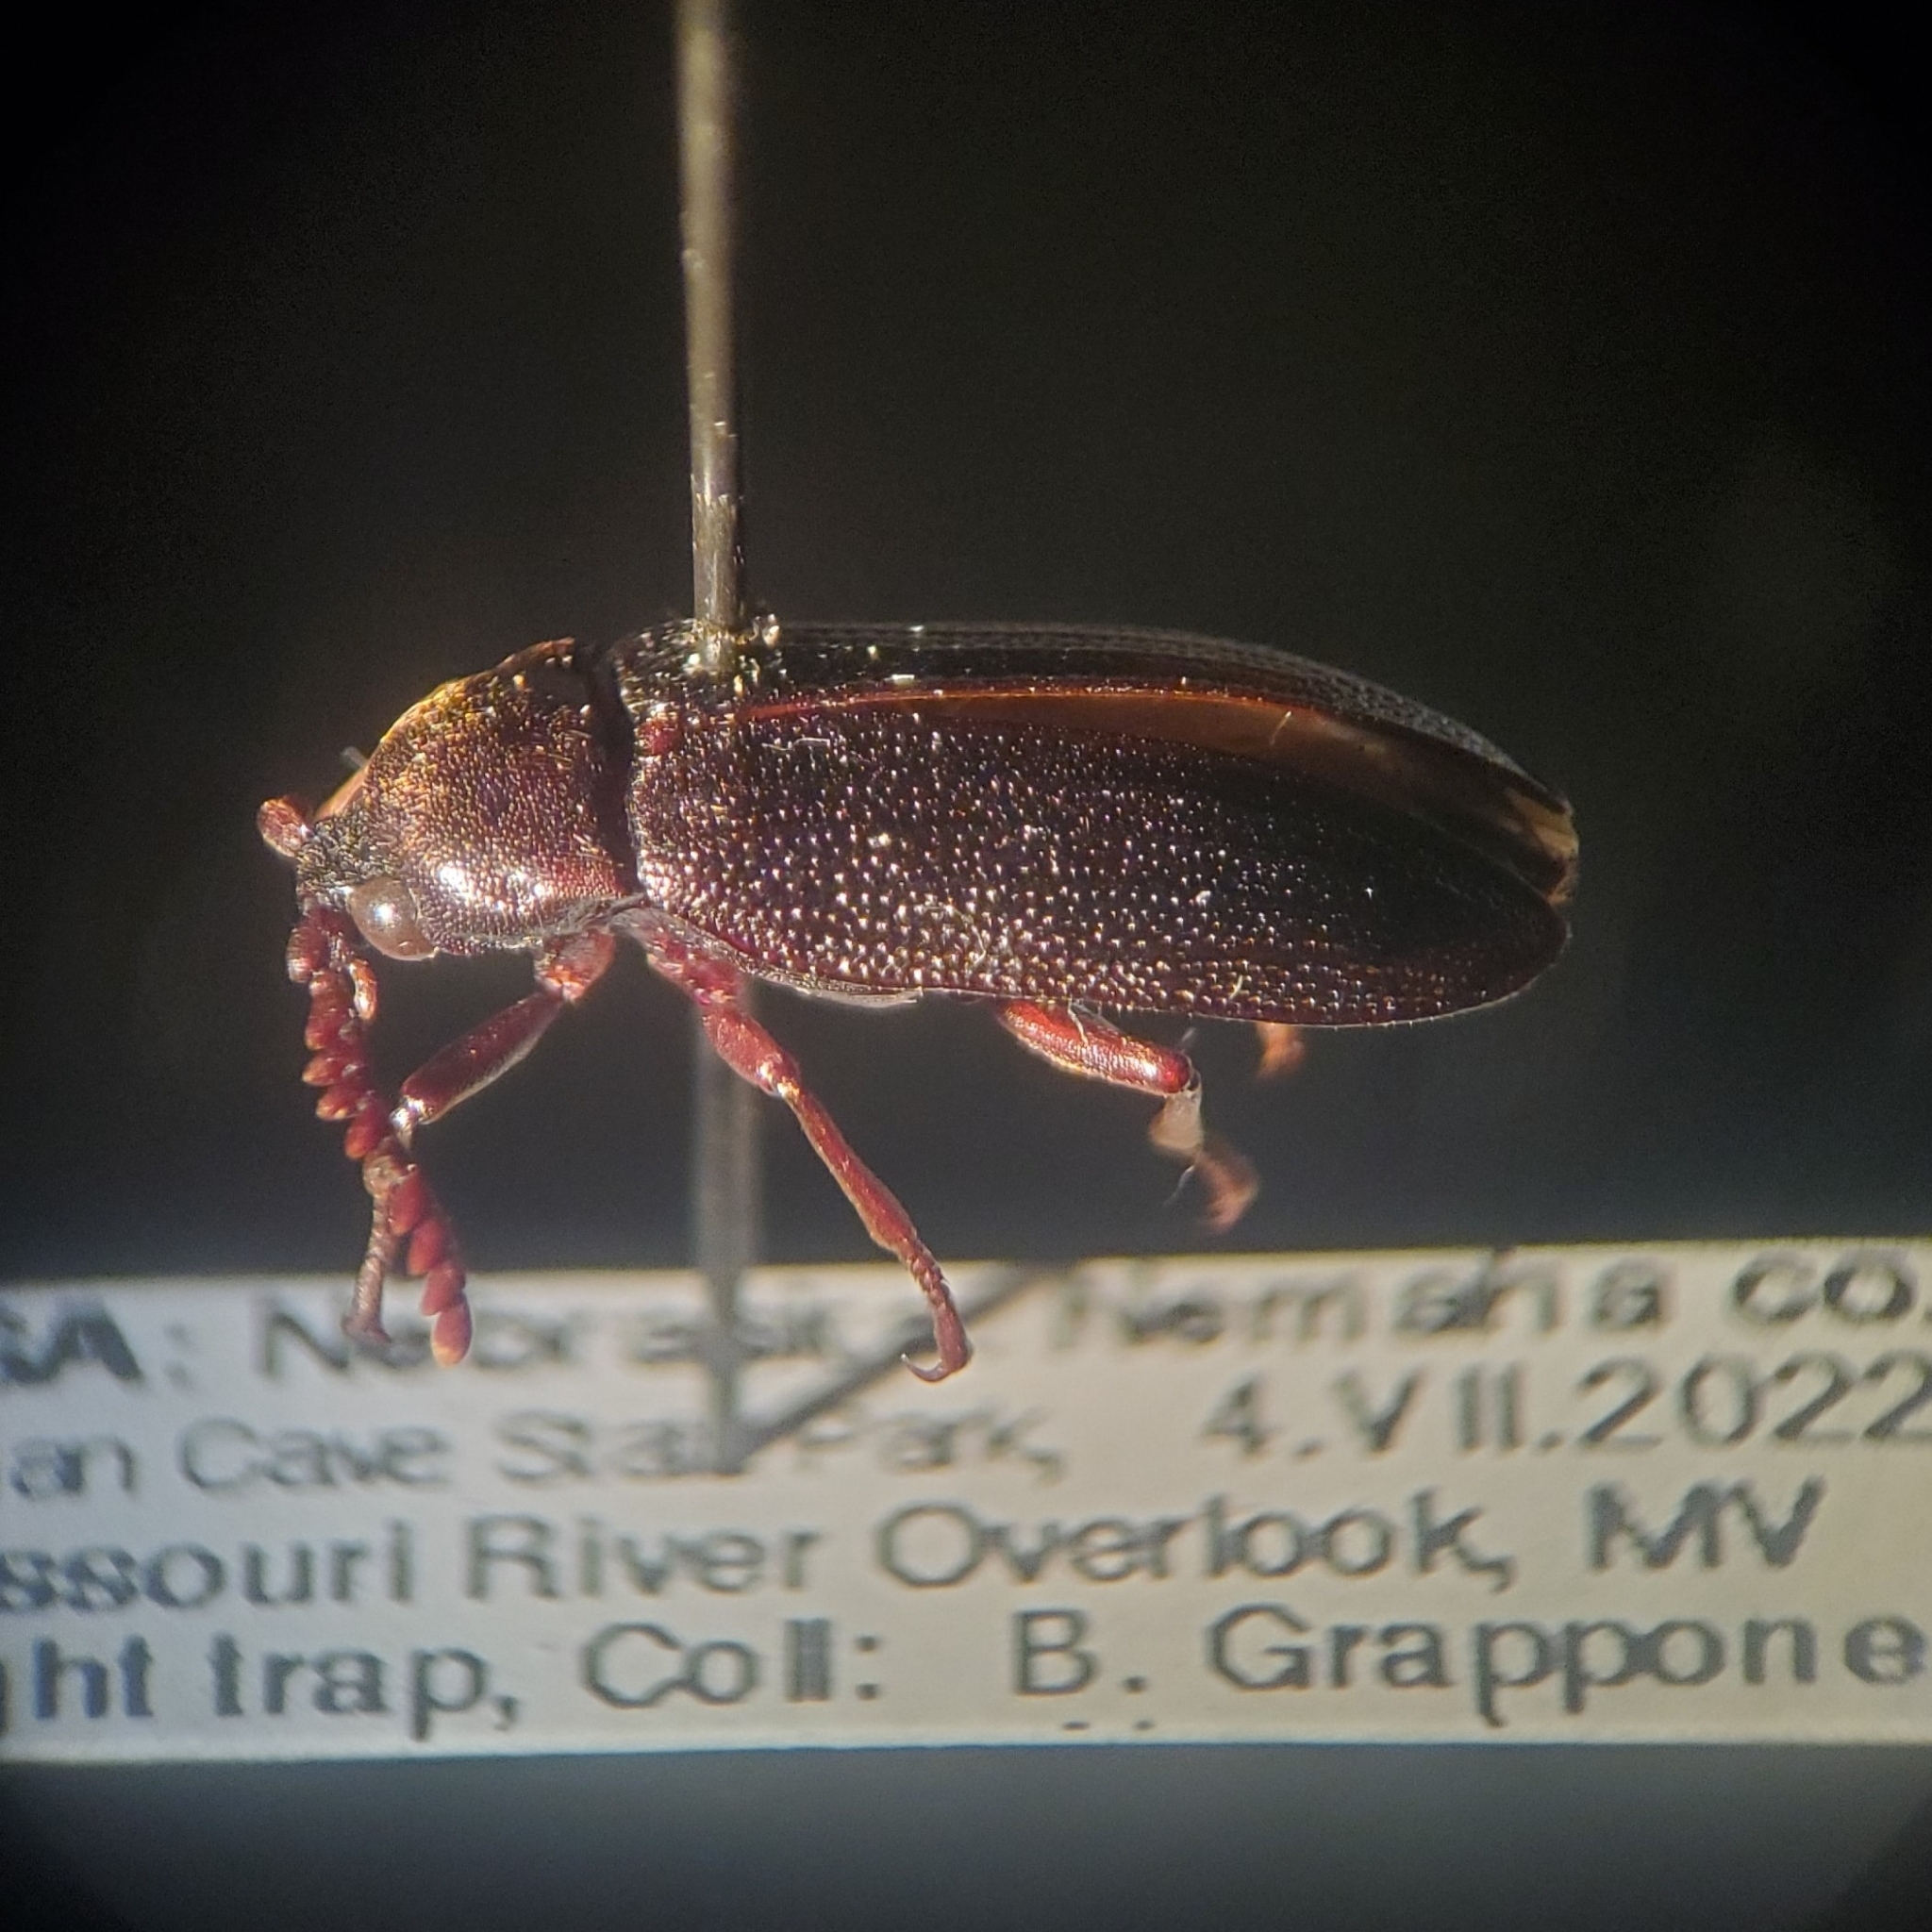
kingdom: Animalia
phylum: Arthropoda
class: Insecta
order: Coleoptera
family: Callirhipidae
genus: Zenoa
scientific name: Zenoa picea
